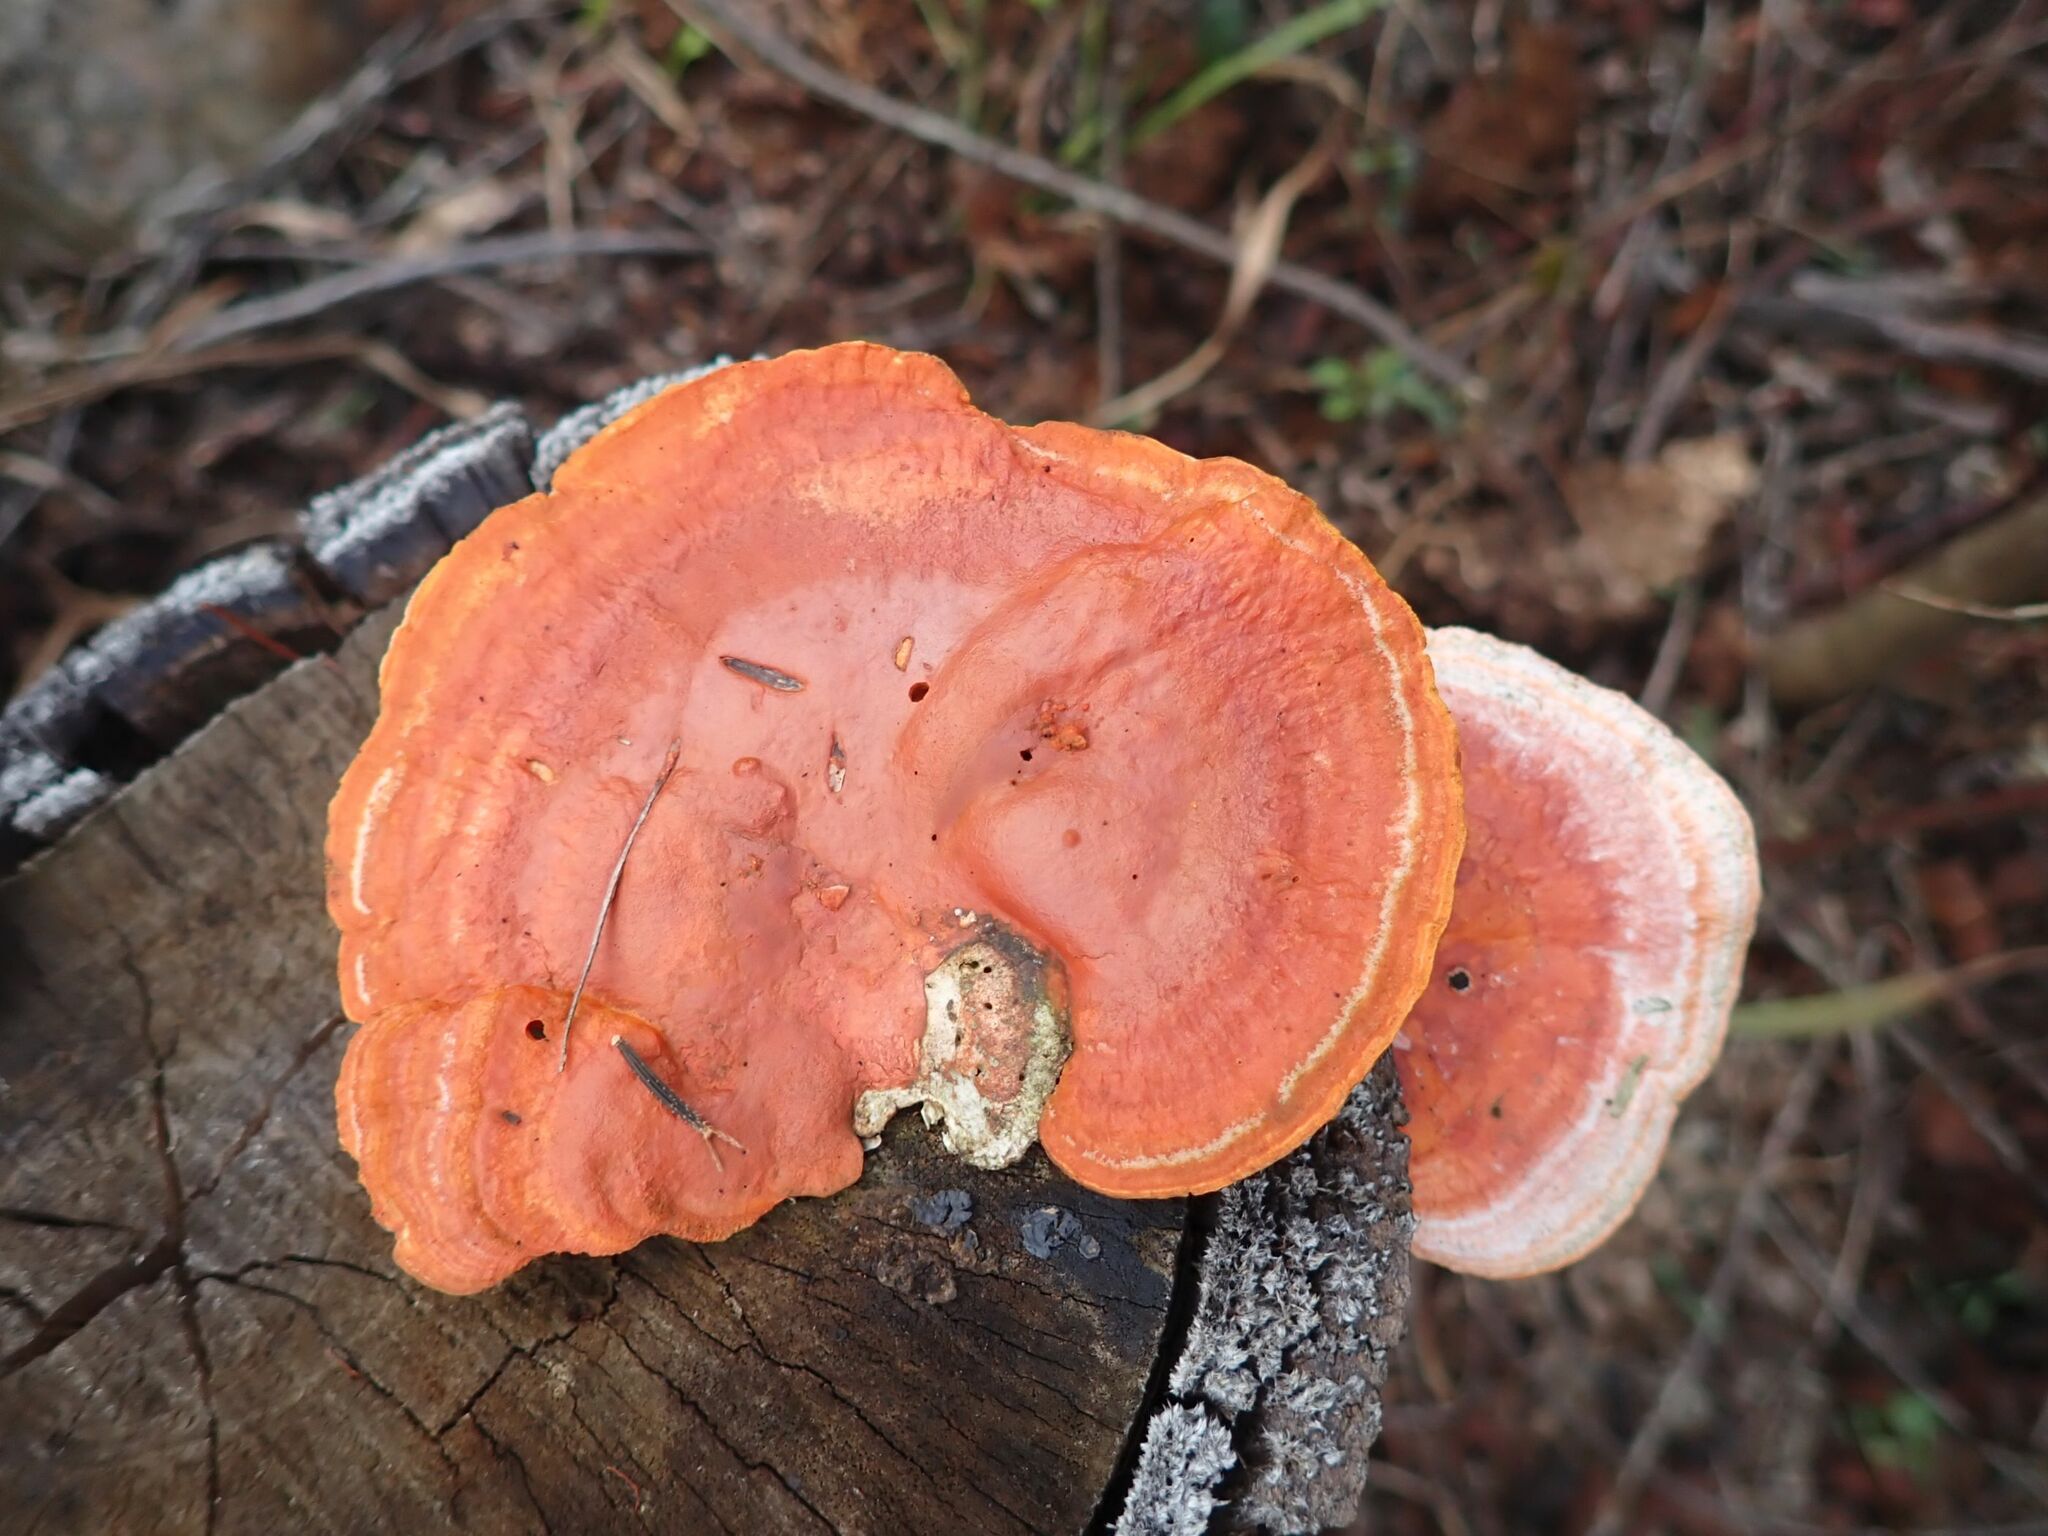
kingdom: Fungi
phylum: Basidiomycota
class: Agaricomycetes
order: Polyporales
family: Polyporaceae
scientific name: Polyporaceae
